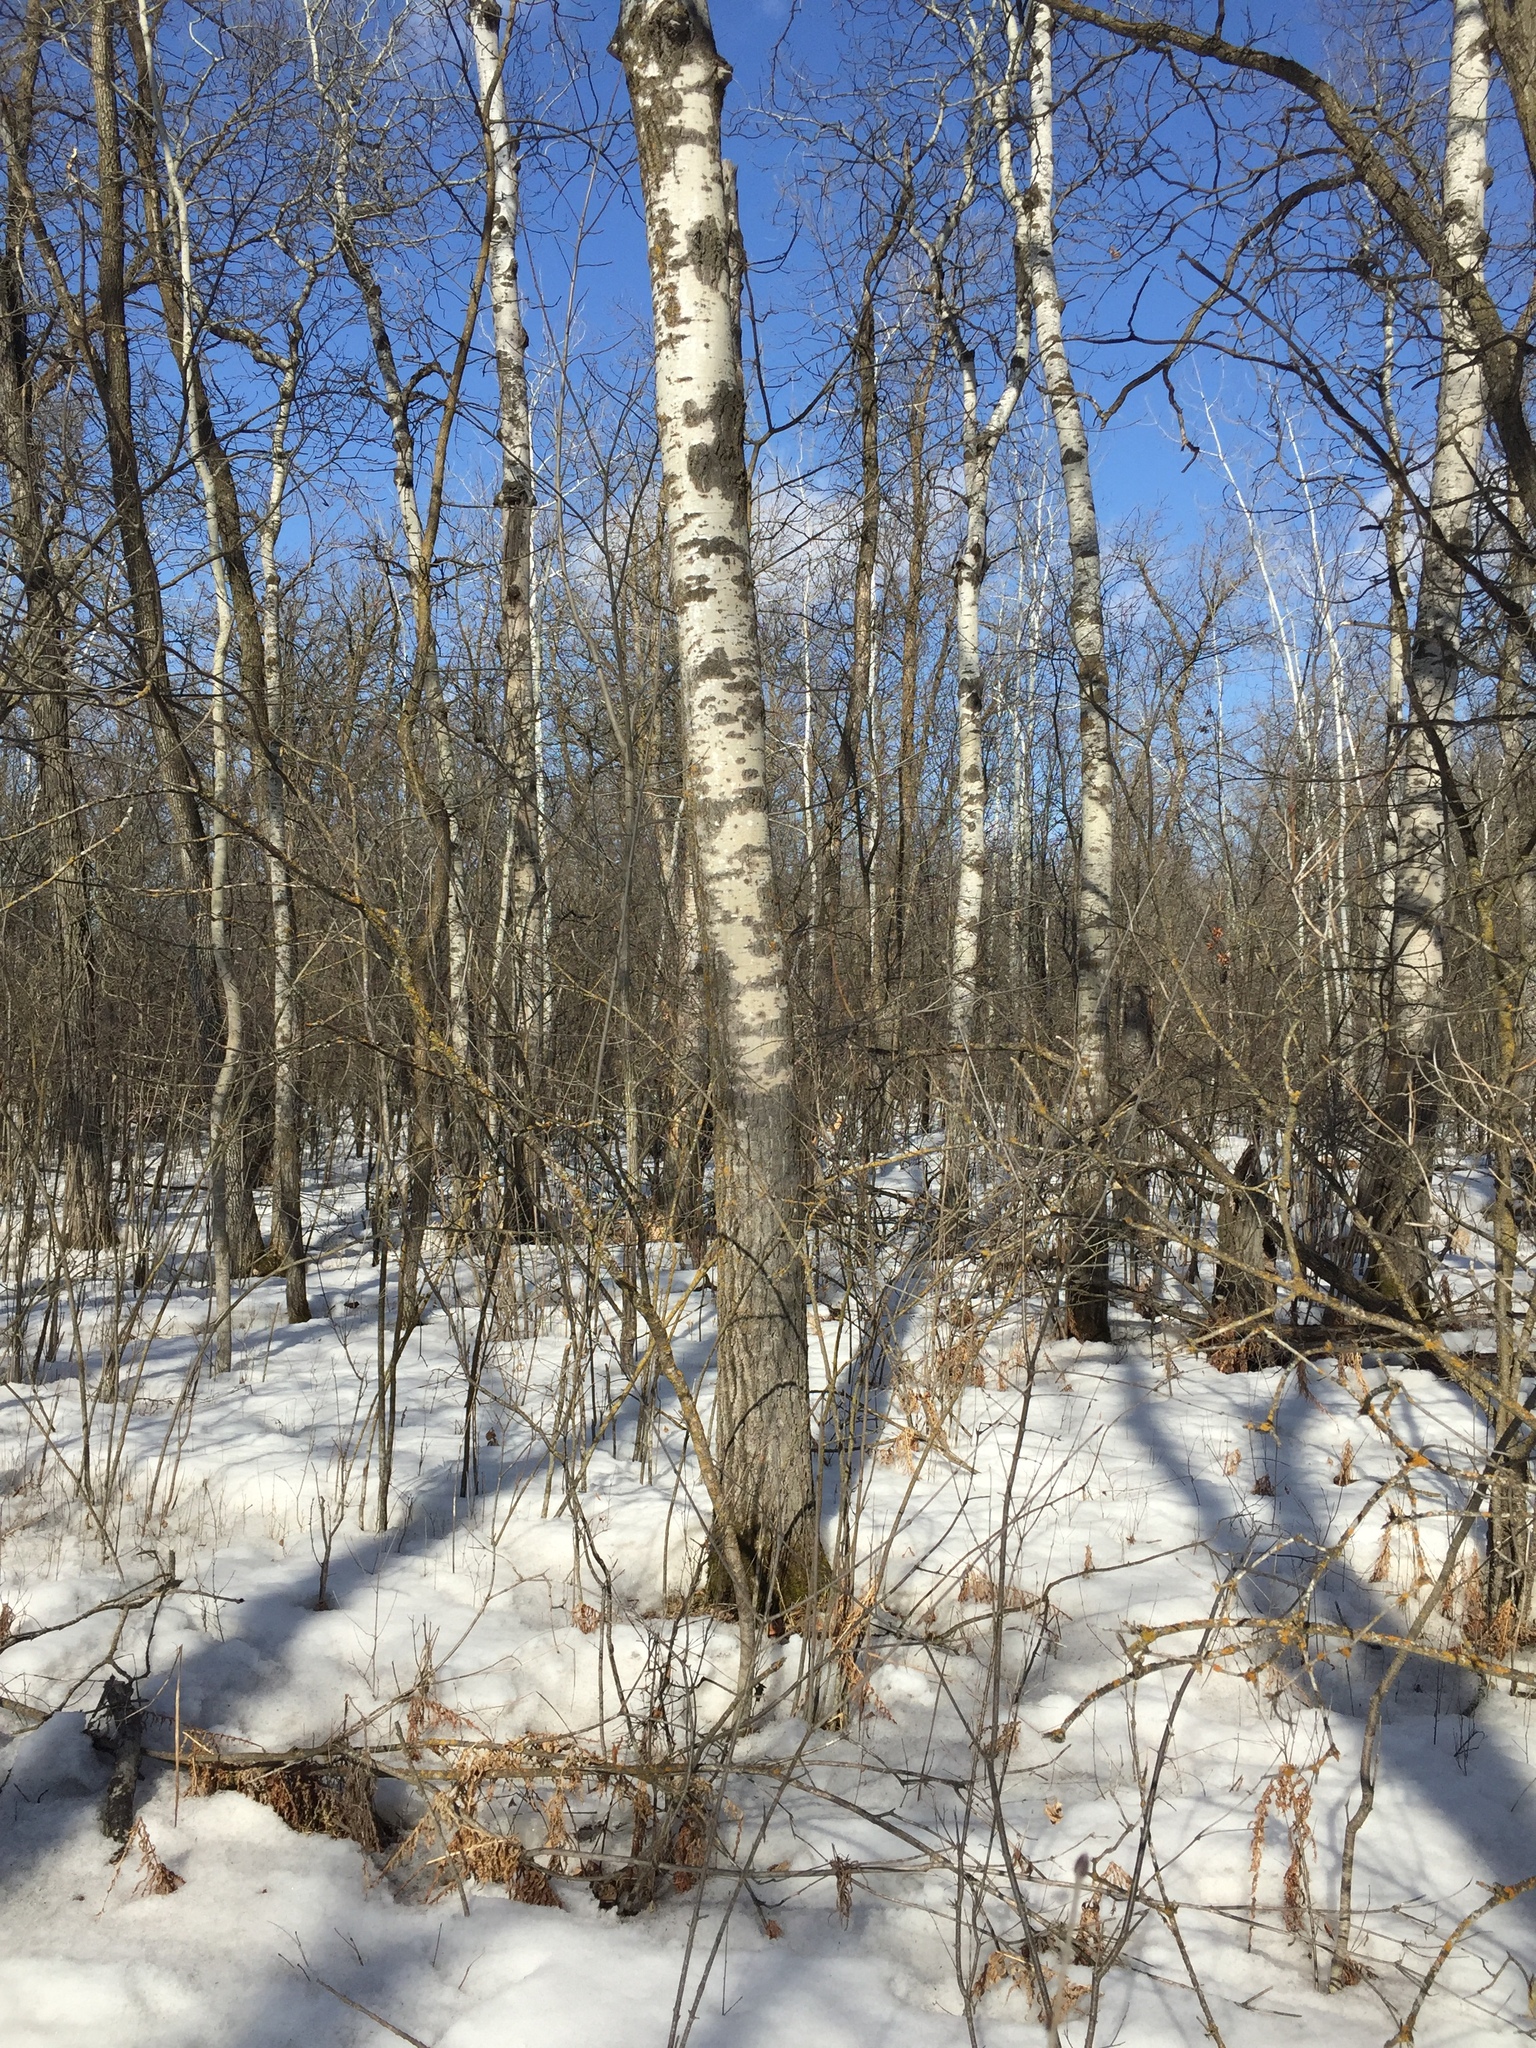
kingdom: Plantae
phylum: Tracheophyta
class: Magnoliopsida
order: Malpighiales
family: Salicaceae
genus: Populus
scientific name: Populus tremuloides
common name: Quaking aspen
